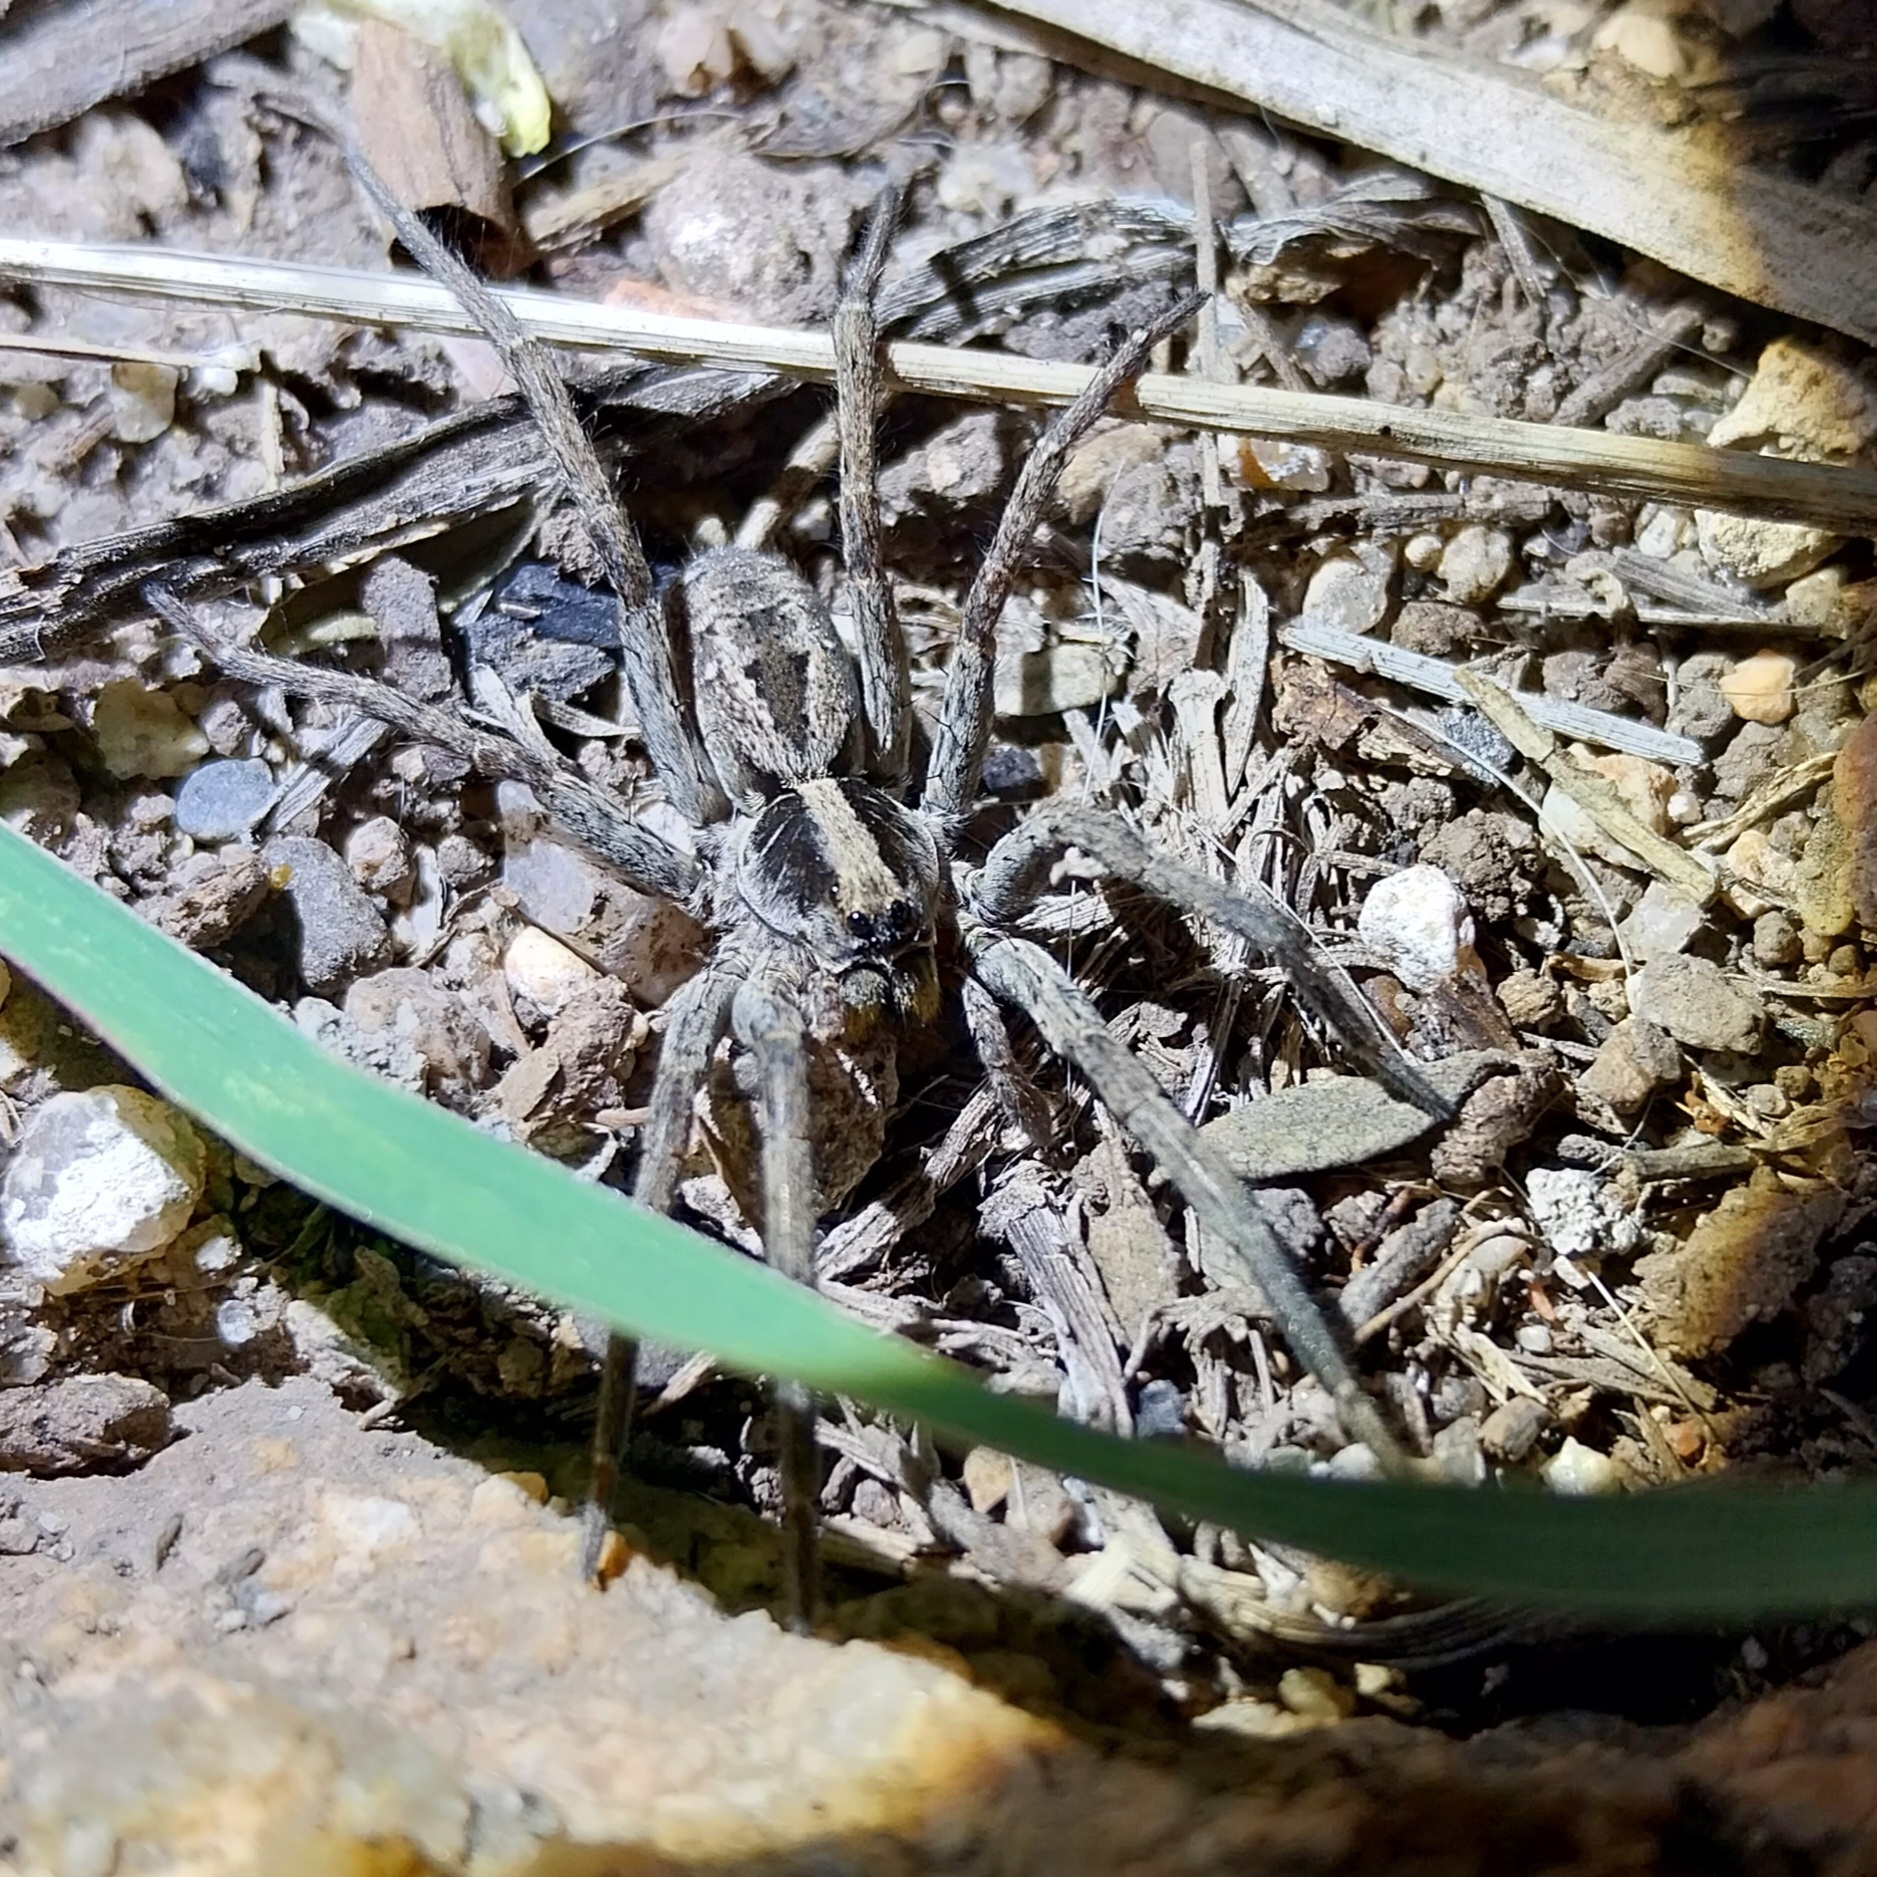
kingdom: Animalia
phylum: Arthropoda
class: Arachnida
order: Araneae
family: Lycosidae
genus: Schizocosa
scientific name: Schizocosa malitiosa
